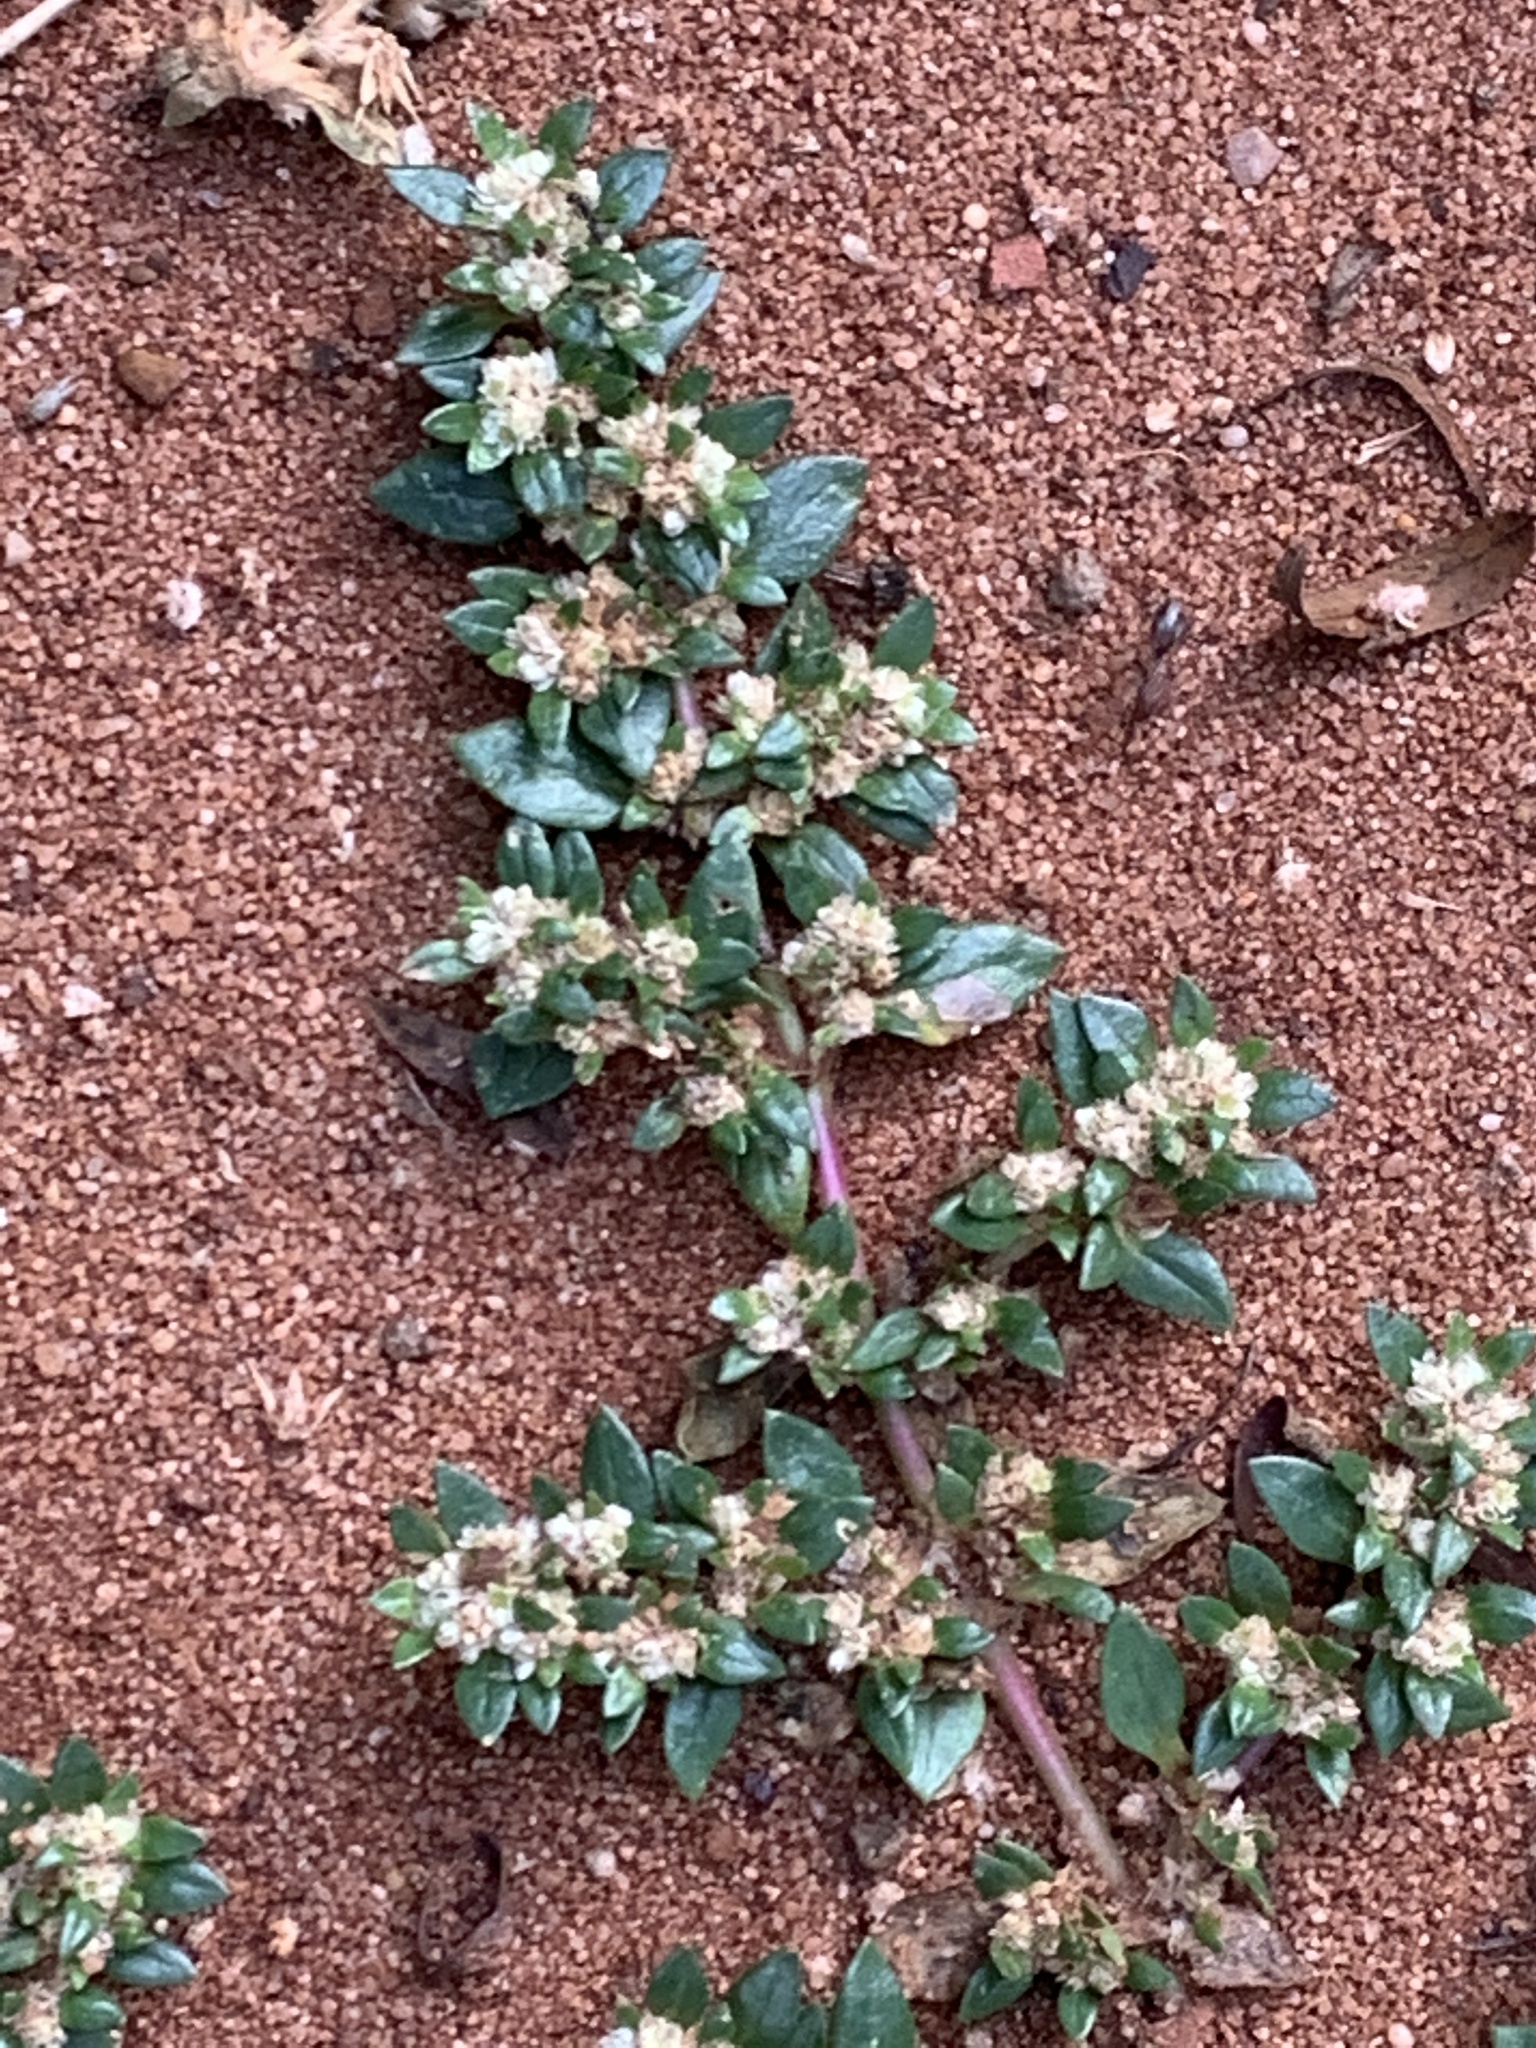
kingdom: Plantae
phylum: Tracheophyta
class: Magnoliopsida
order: Caryophyllales
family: Amaranthaceae
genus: Guilleminea
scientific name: Guilleminea densa
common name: Small matweed
